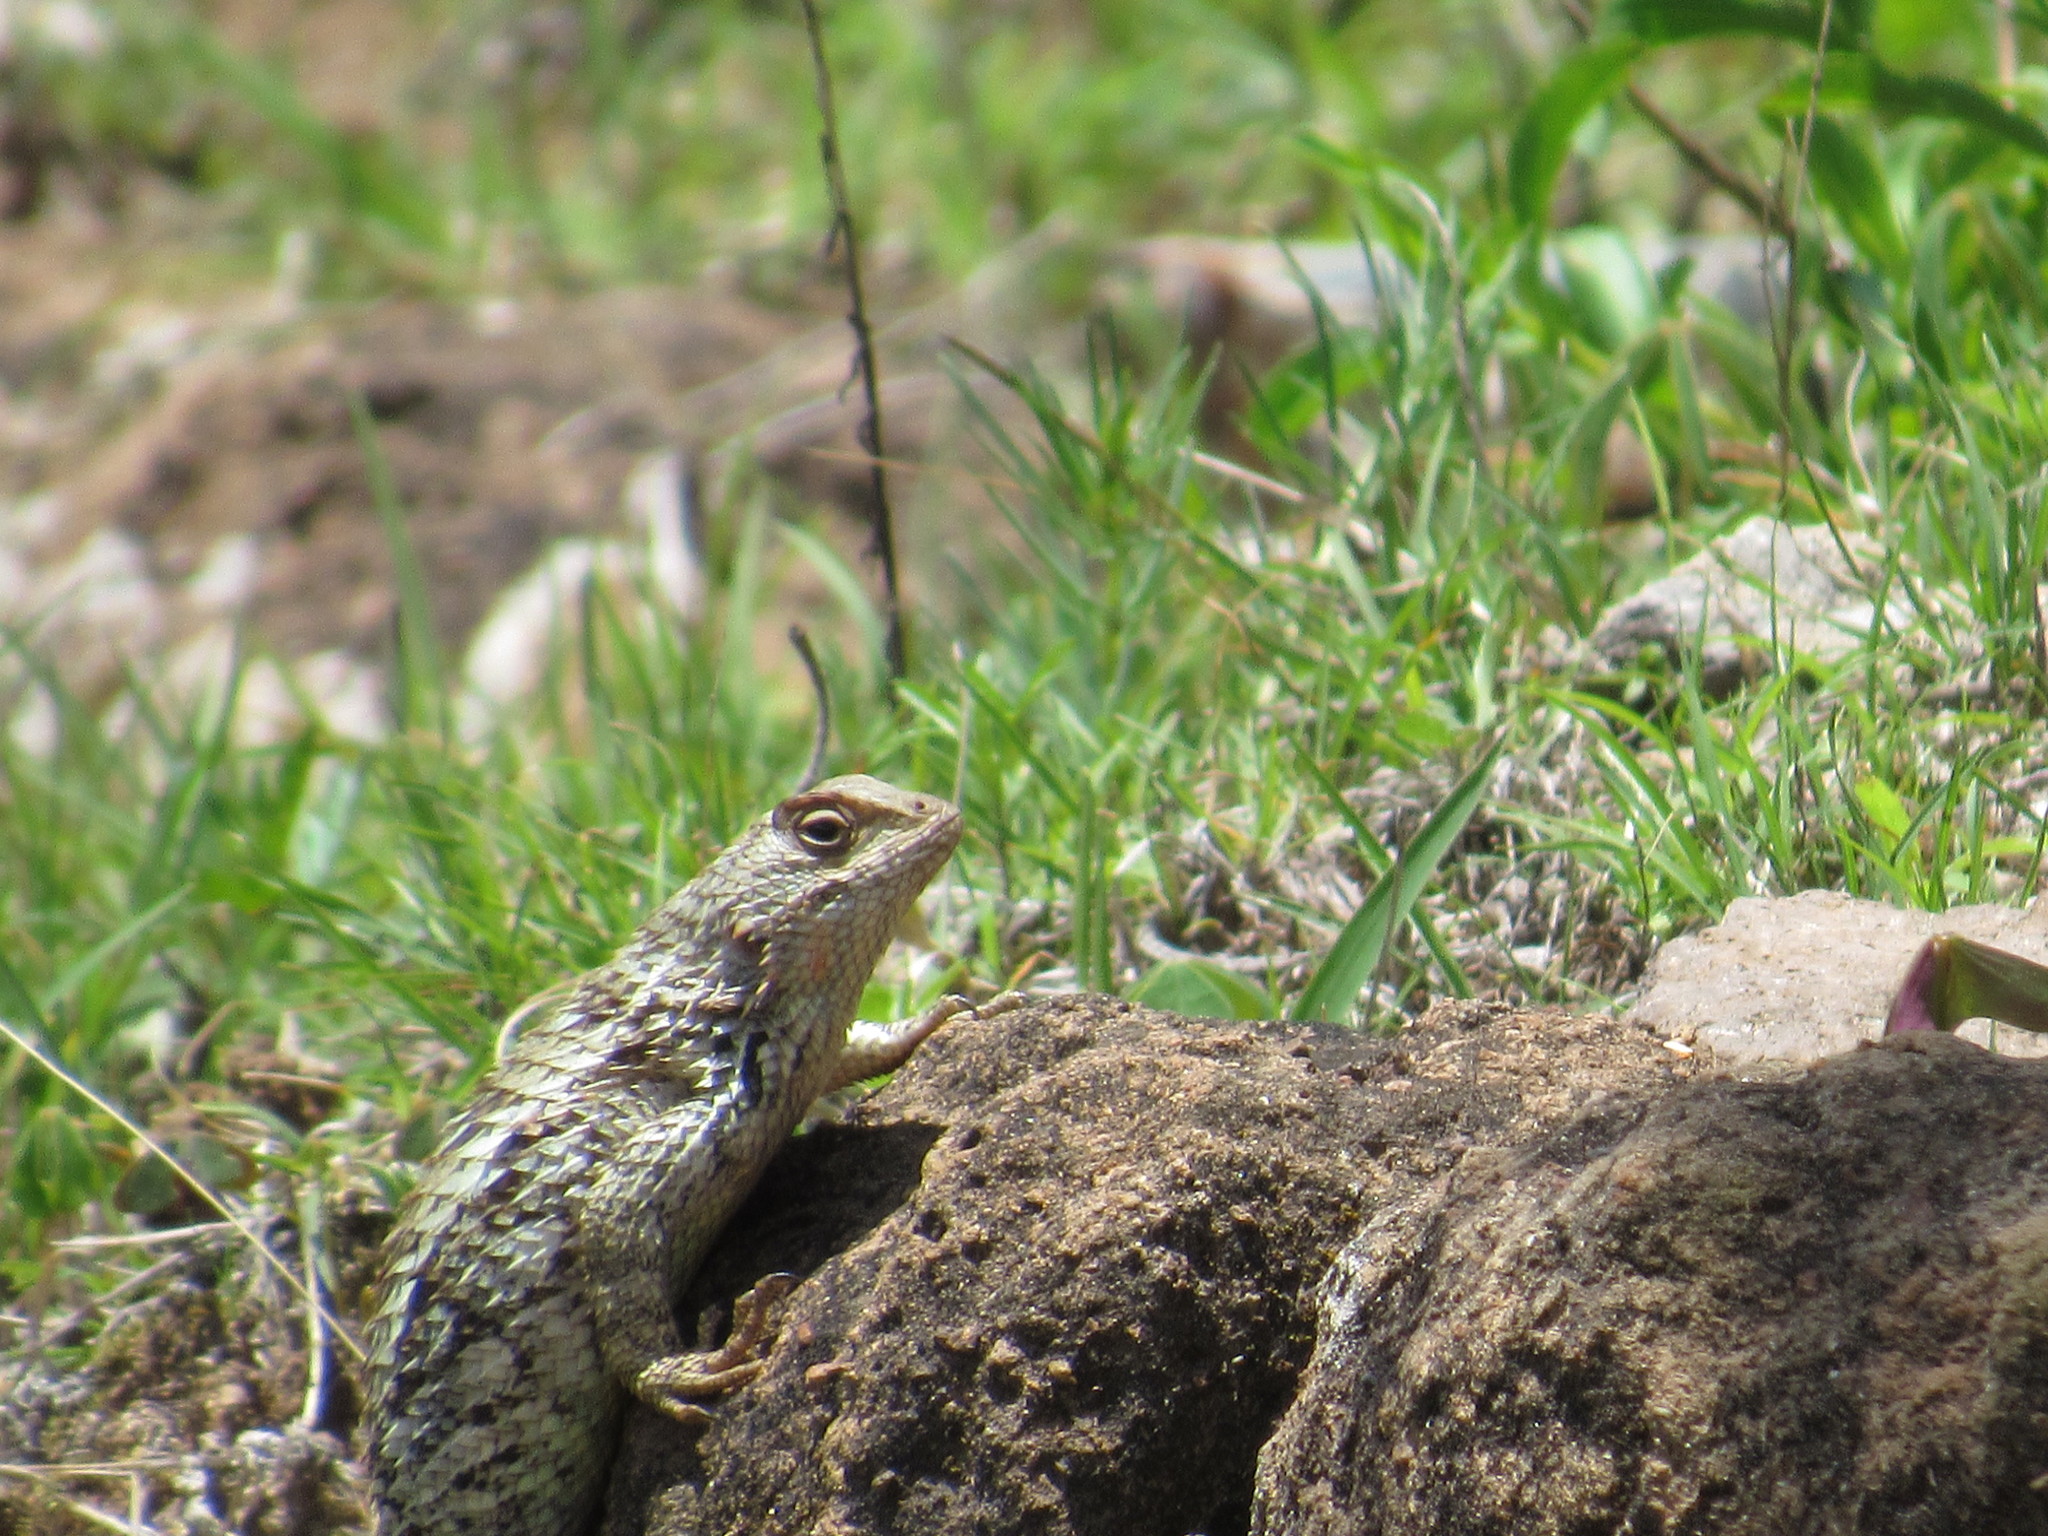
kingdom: Animalia
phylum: Chordata
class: Squamata
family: Phrynosomatidae
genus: Sceloporus
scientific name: Sceloporus spinosus
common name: Blue-spotted spiny lizard [caeruleopunctatus]
